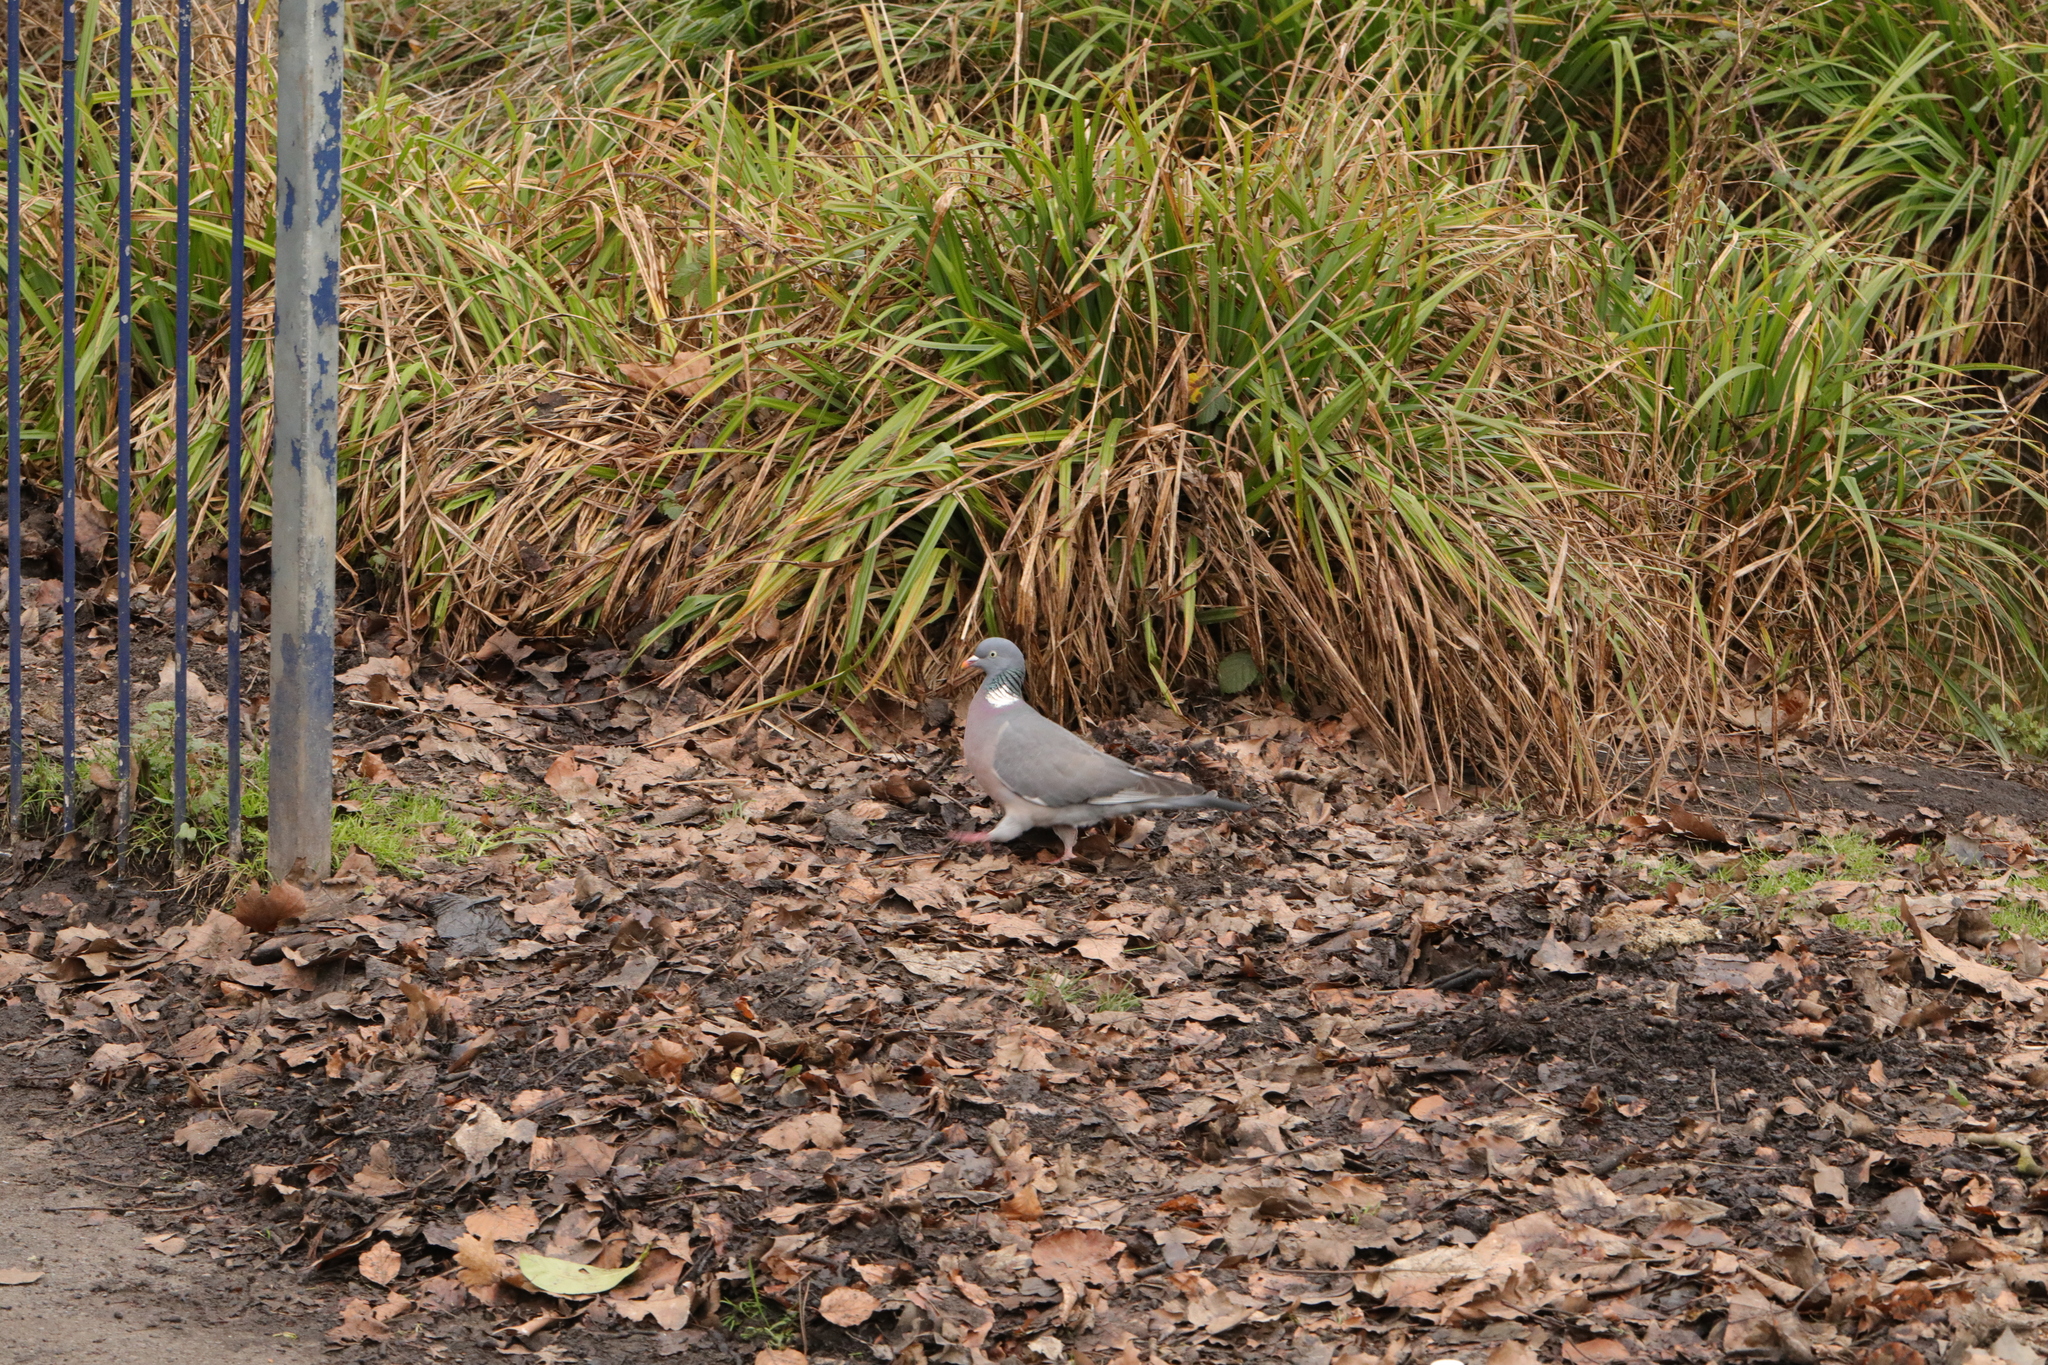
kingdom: Animalia
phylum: Chordata
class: Aves
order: Columbiformes
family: Columbidae
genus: Columba
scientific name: Columba palumbus
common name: Common wood pigeon
